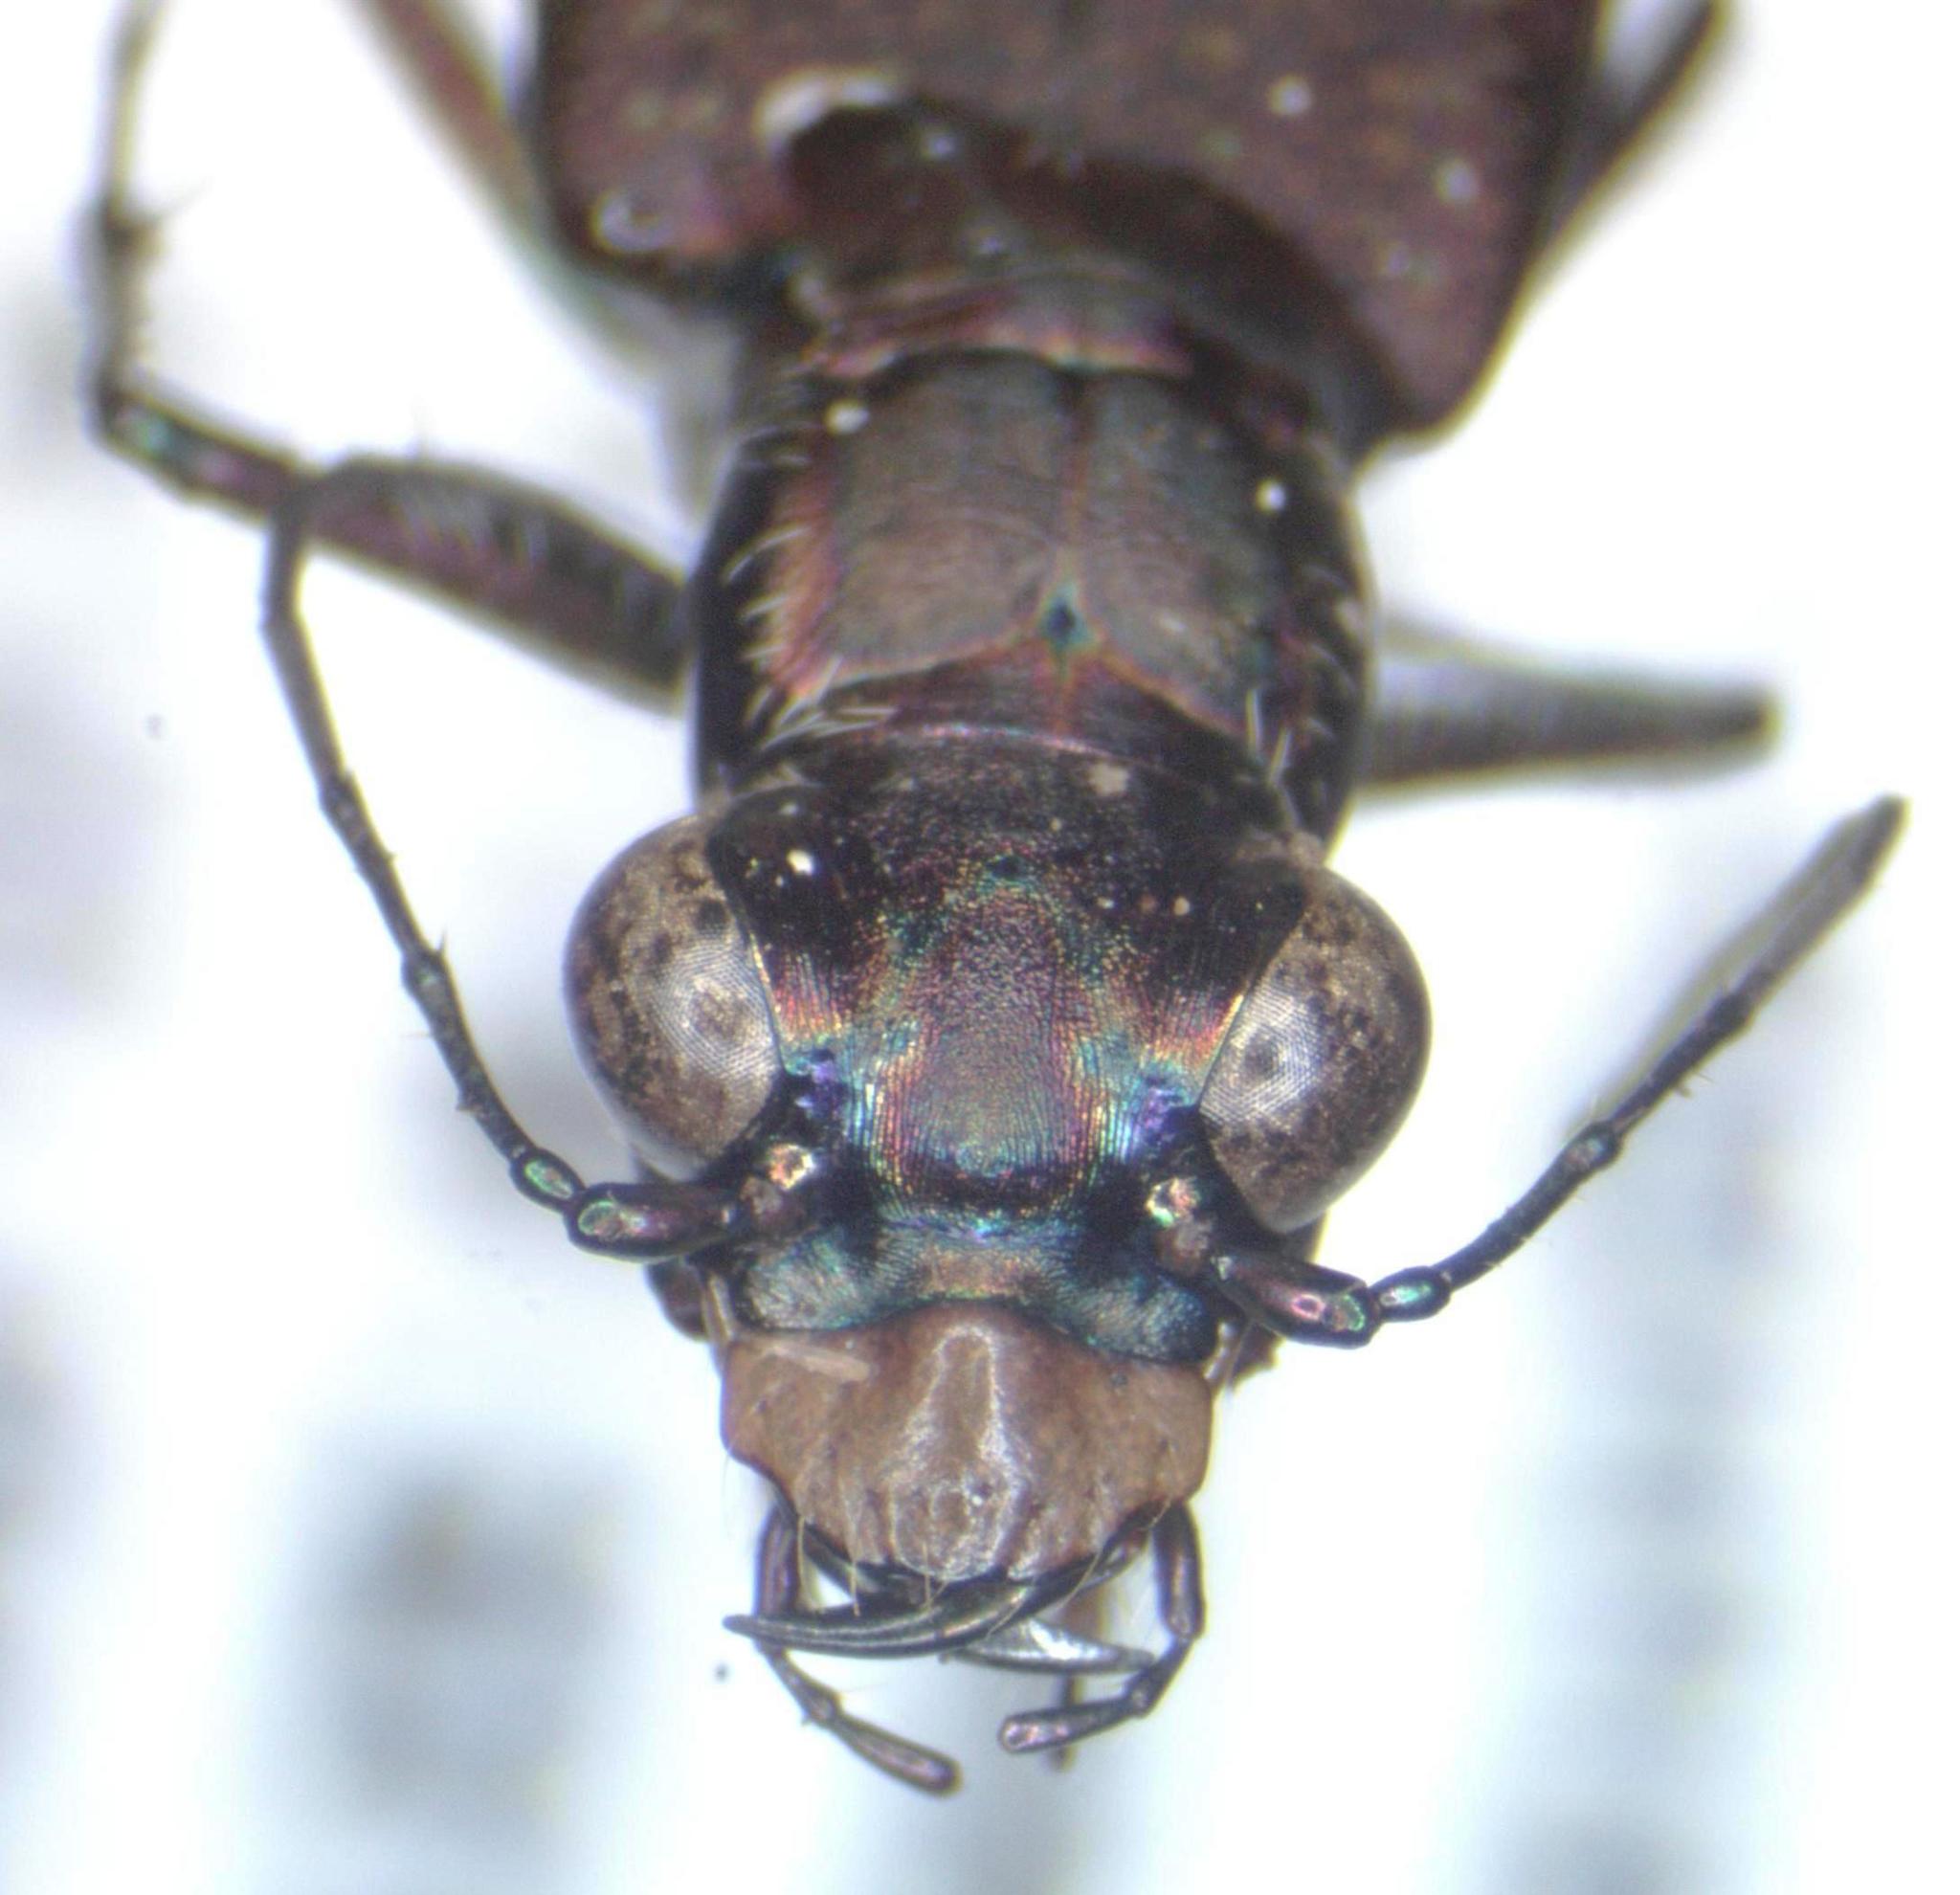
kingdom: Animalia
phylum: Arthropoda
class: Insecta
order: Coleoptera
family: Carabidae
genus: Cicindela
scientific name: Cicindela cyaniventris
